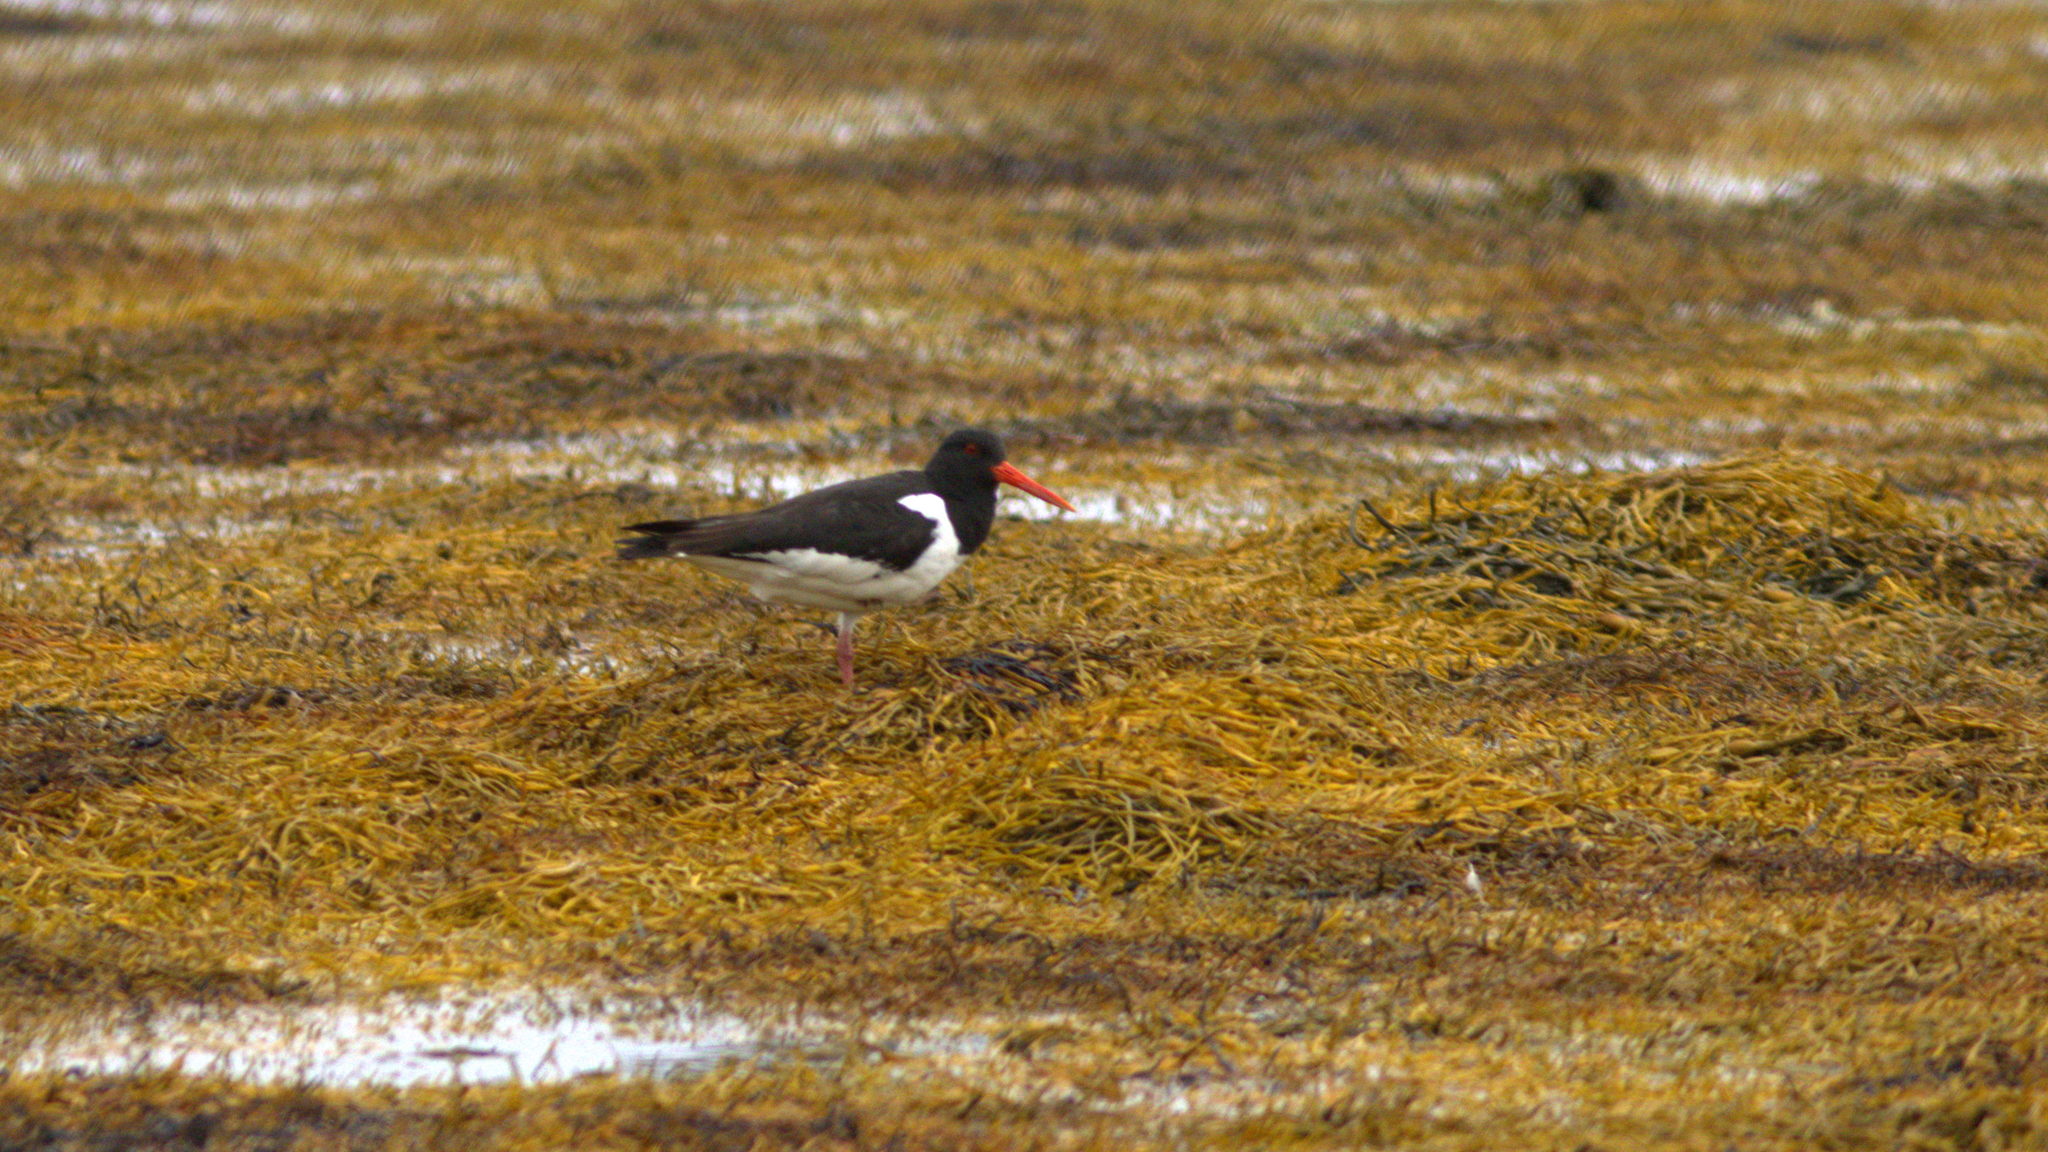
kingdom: Animalia
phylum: Chordata
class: Aves
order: Charadriiformes
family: Haematopodidae
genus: Haematopus
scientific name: Haematopus ostralegus
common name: Eurasian oystercatcher
